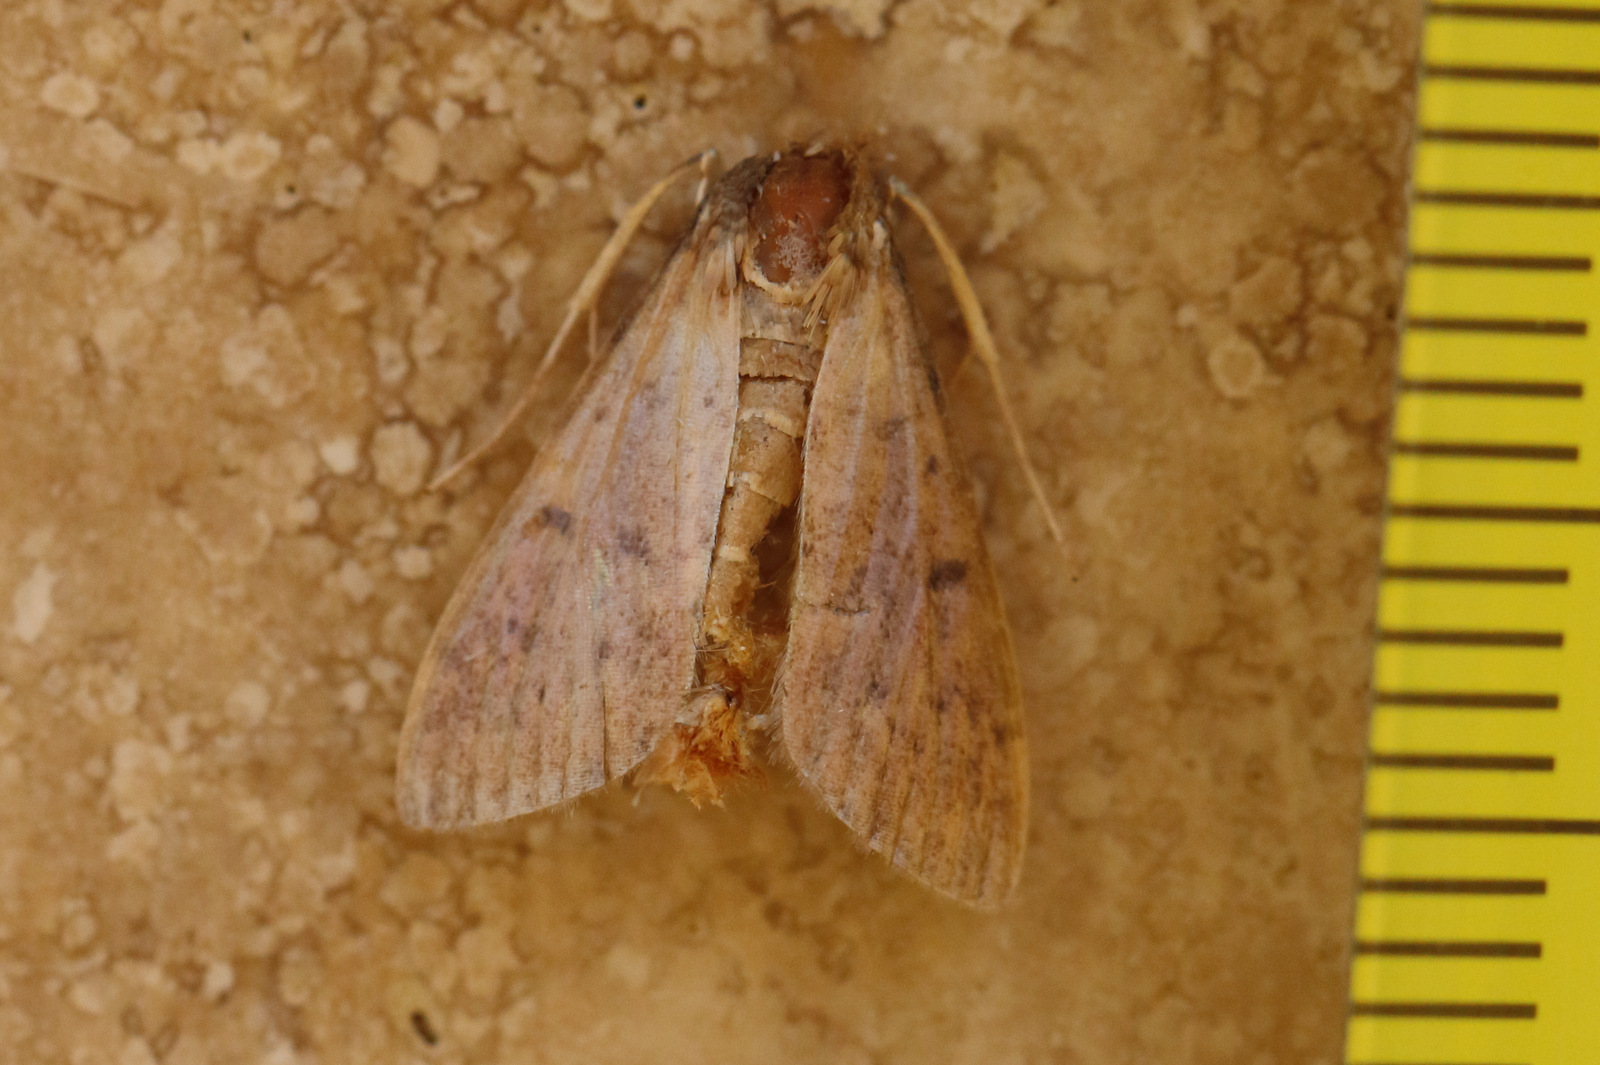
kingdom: Animalia
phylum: Arthropoda
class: Insecta
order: Lepidoptera
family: Crambidae
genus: Herpetogramma
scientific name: Herpetogramma licarsisalis
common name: Grass webworm
